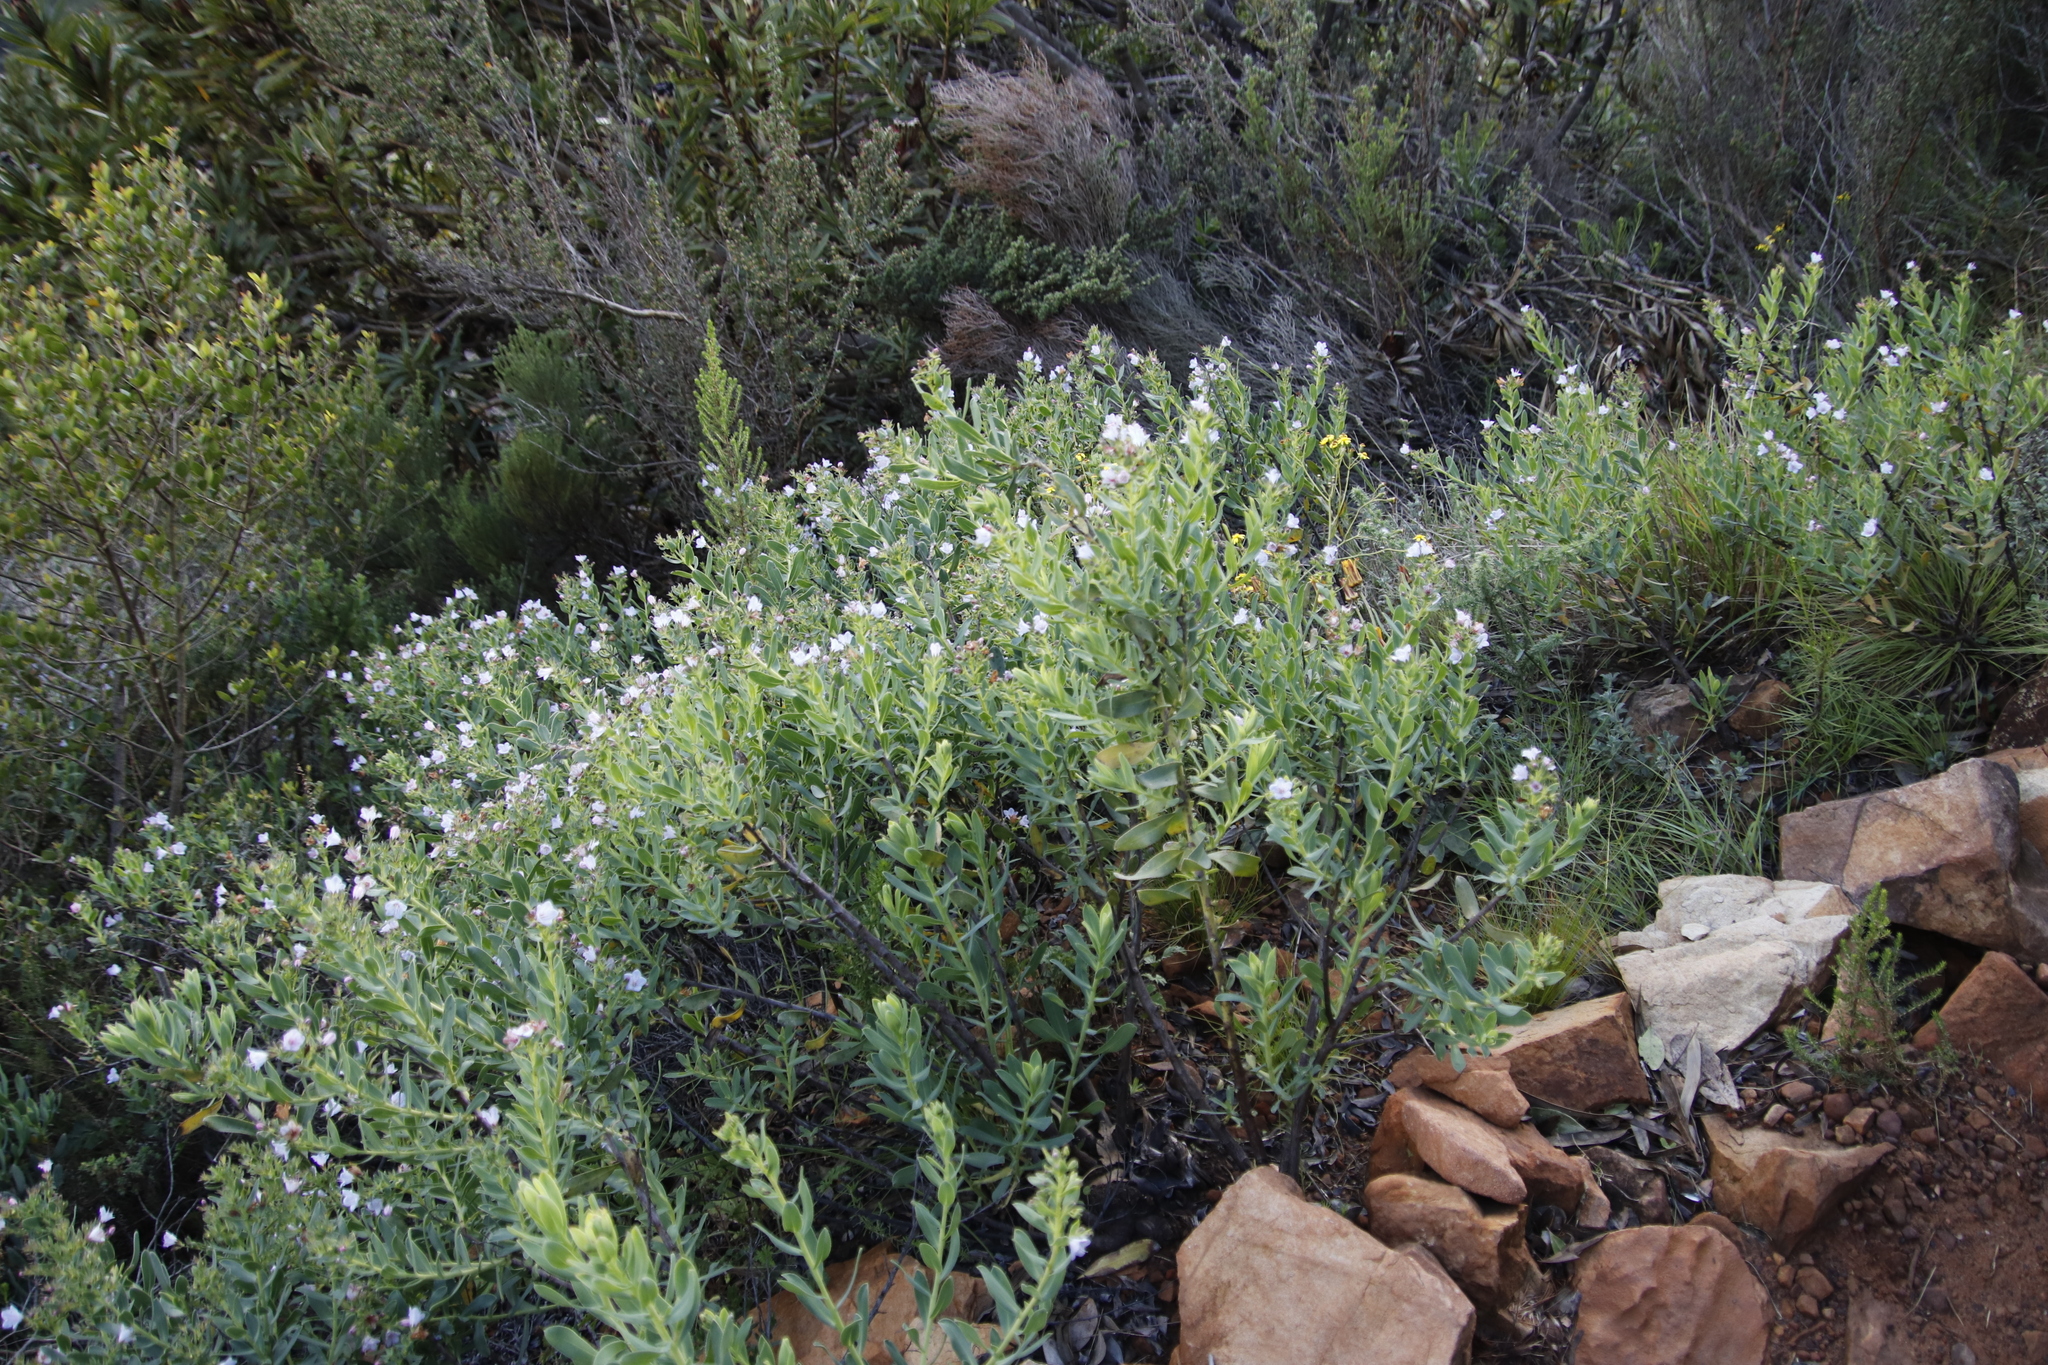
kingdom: Plantae
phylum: Tracheophyta
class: Magnoliopsida
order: Boraginales
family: Boraginaceae
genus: Lobostemon
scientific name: Lobostemon glaucophyllus
